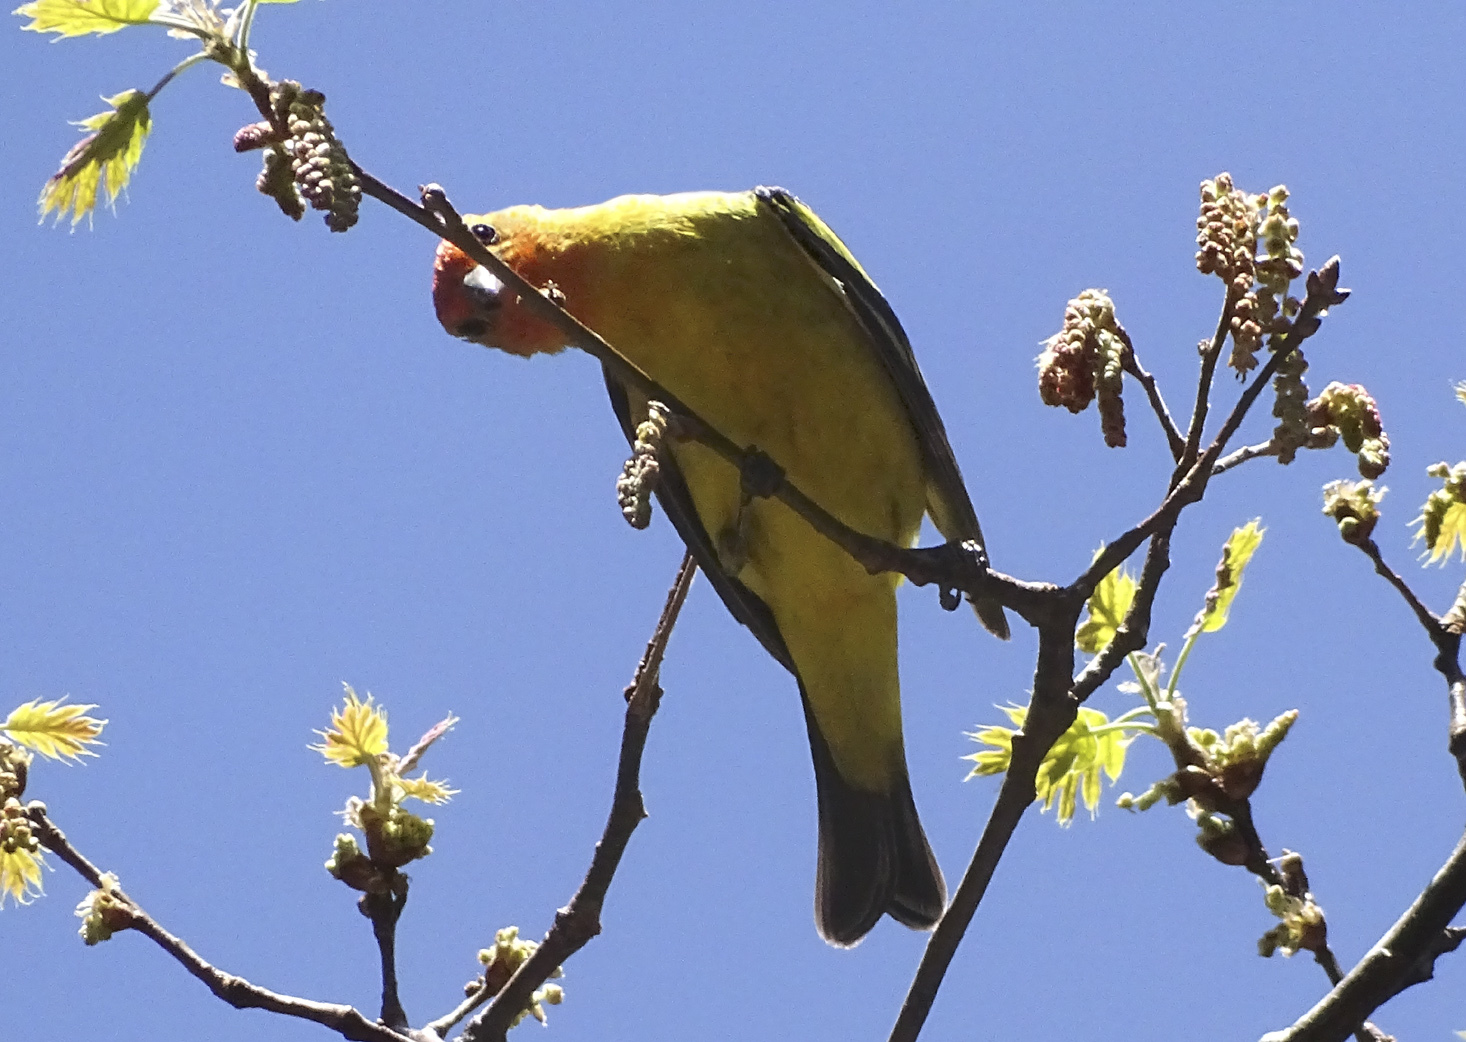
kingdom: Animalia
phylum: Chordata
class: Aves
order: Passeriformes
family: Cardinalidae
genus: Piranga
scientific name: Piranga ludoviciana
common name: Western tanager
